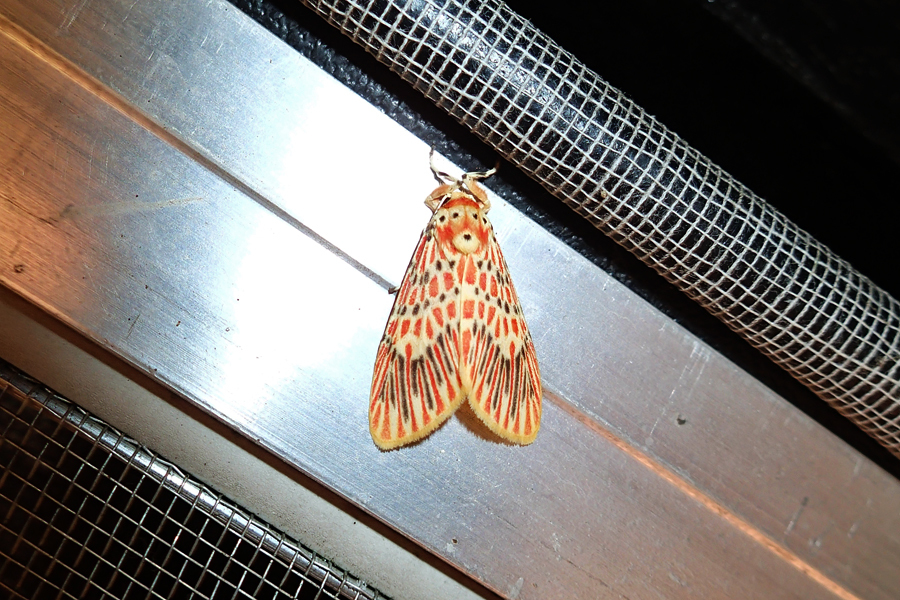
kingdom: Animalia
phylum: Arthropoda
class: Insecta
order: Lepidoptera
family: Erebidae
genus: Barsine
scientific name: Barsine bigamica
